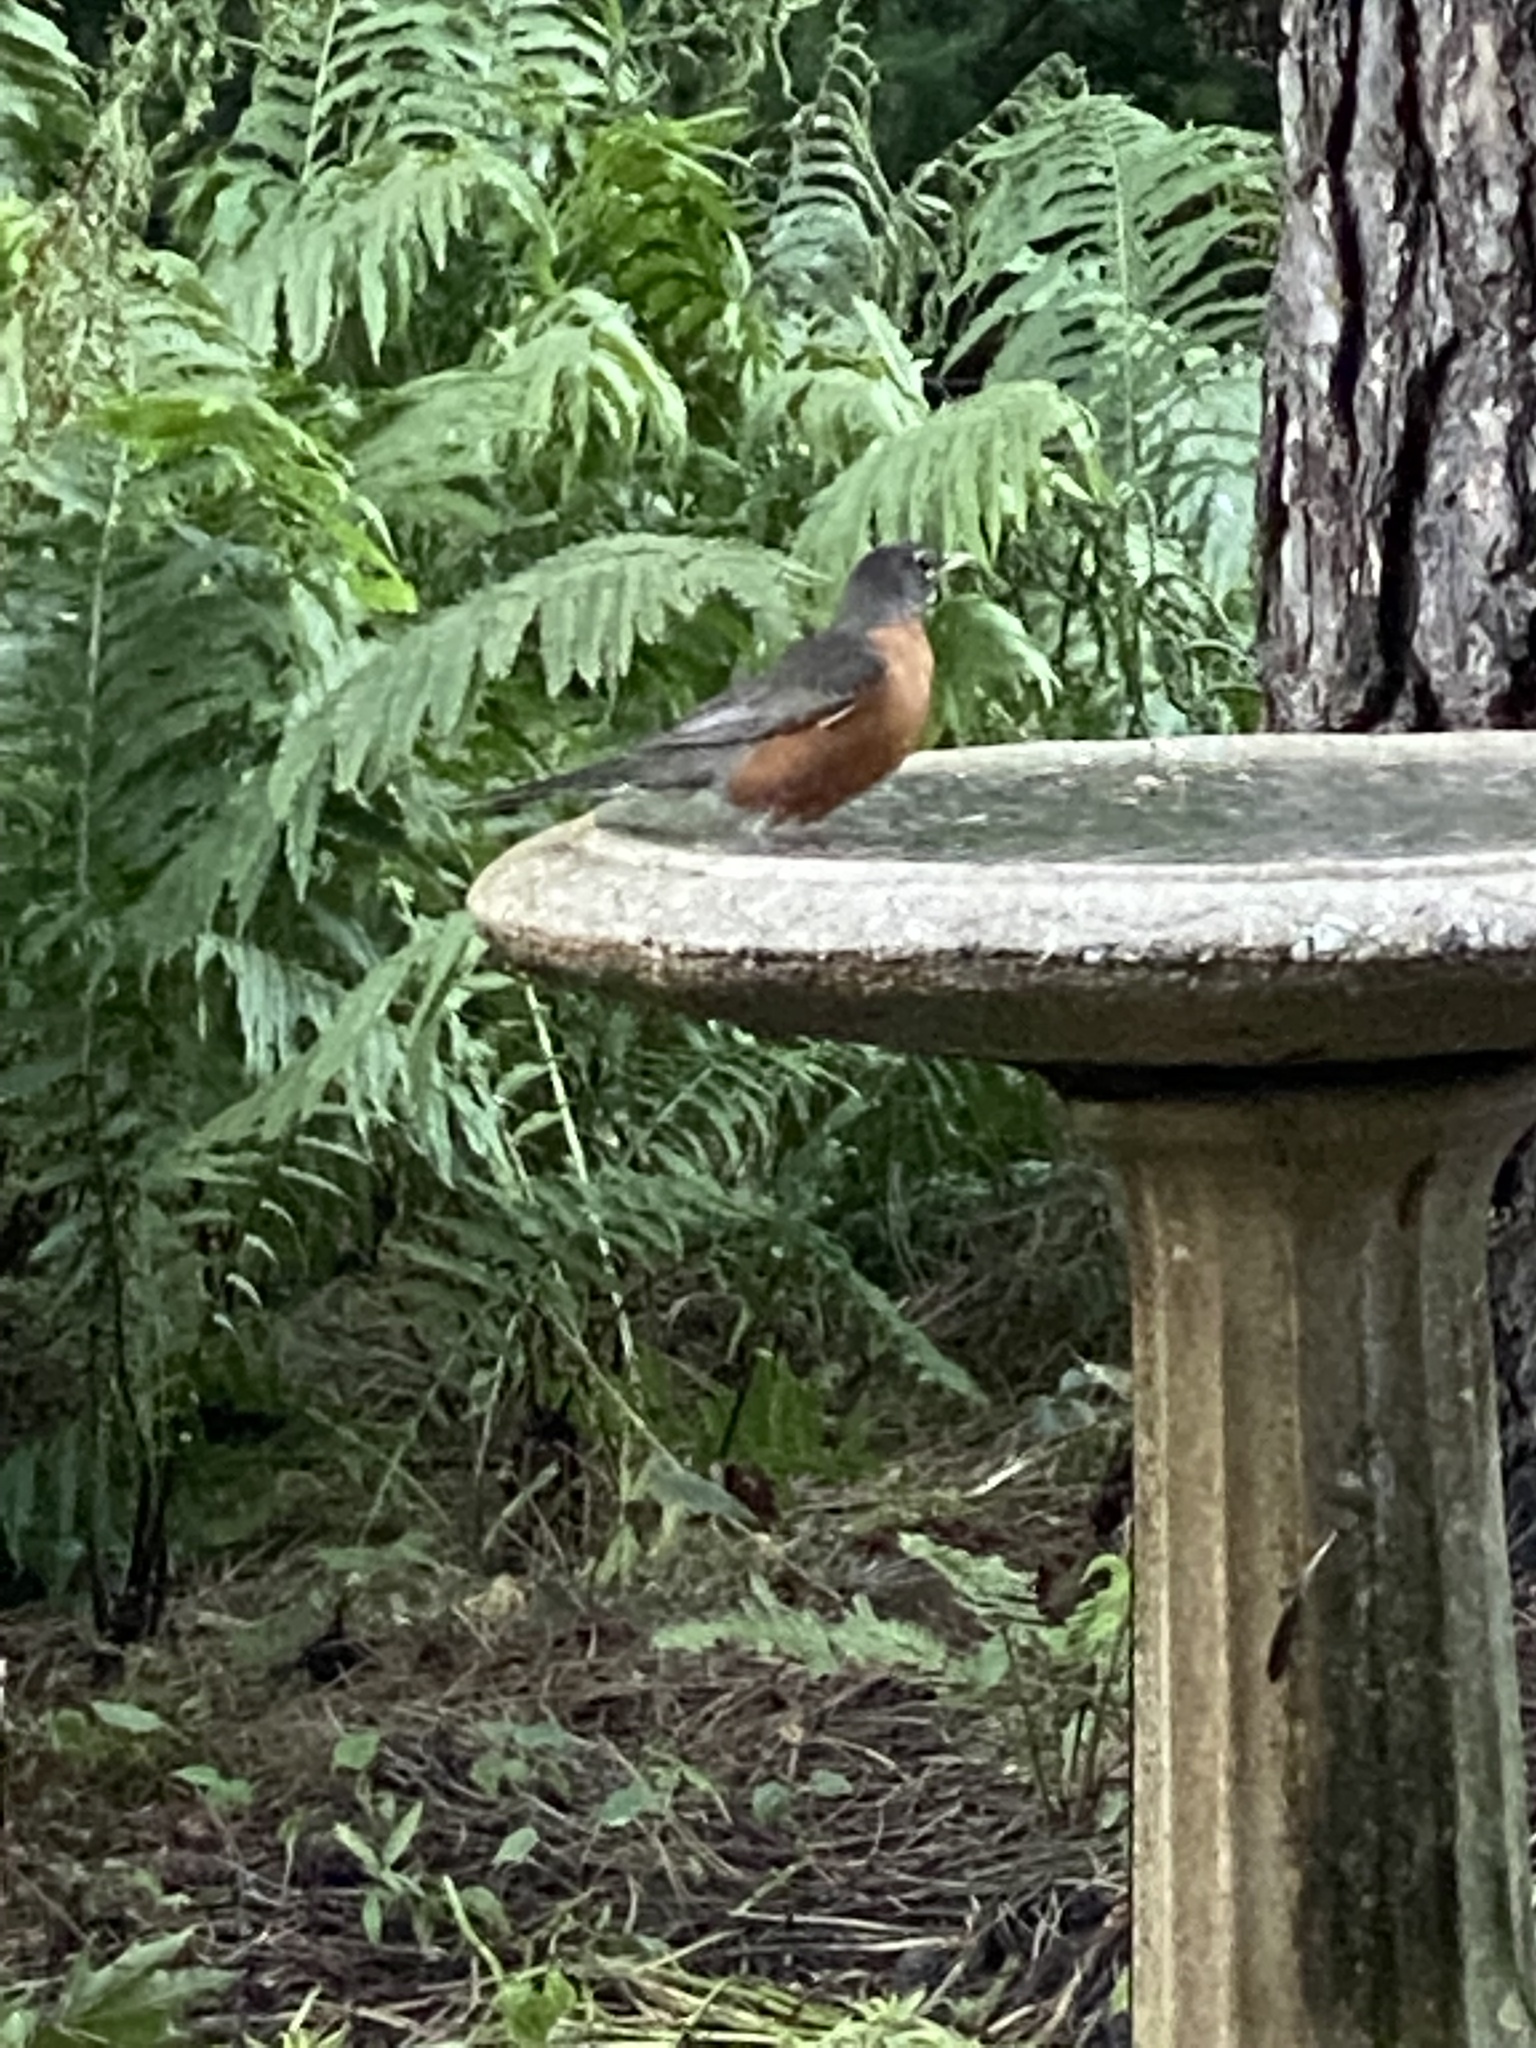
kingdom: Animalia
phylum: Chordata
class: Aves
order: Passeriformes
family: Turdidae
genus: Turdus
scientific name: Turdus migratorius
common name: American robin
